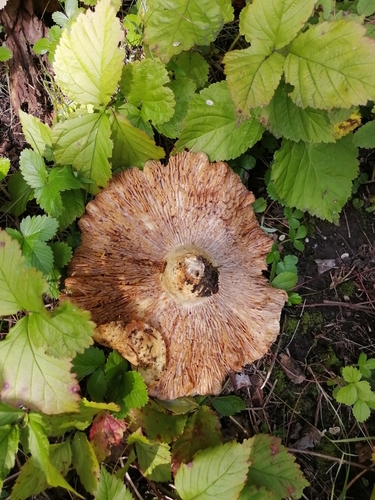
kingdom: Fungi
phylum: Basidiomycota
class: Agaricomycetes
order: Russulales
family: Russulaceae
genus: Russula
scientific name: Russula delica
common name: Milk white brittlegill
